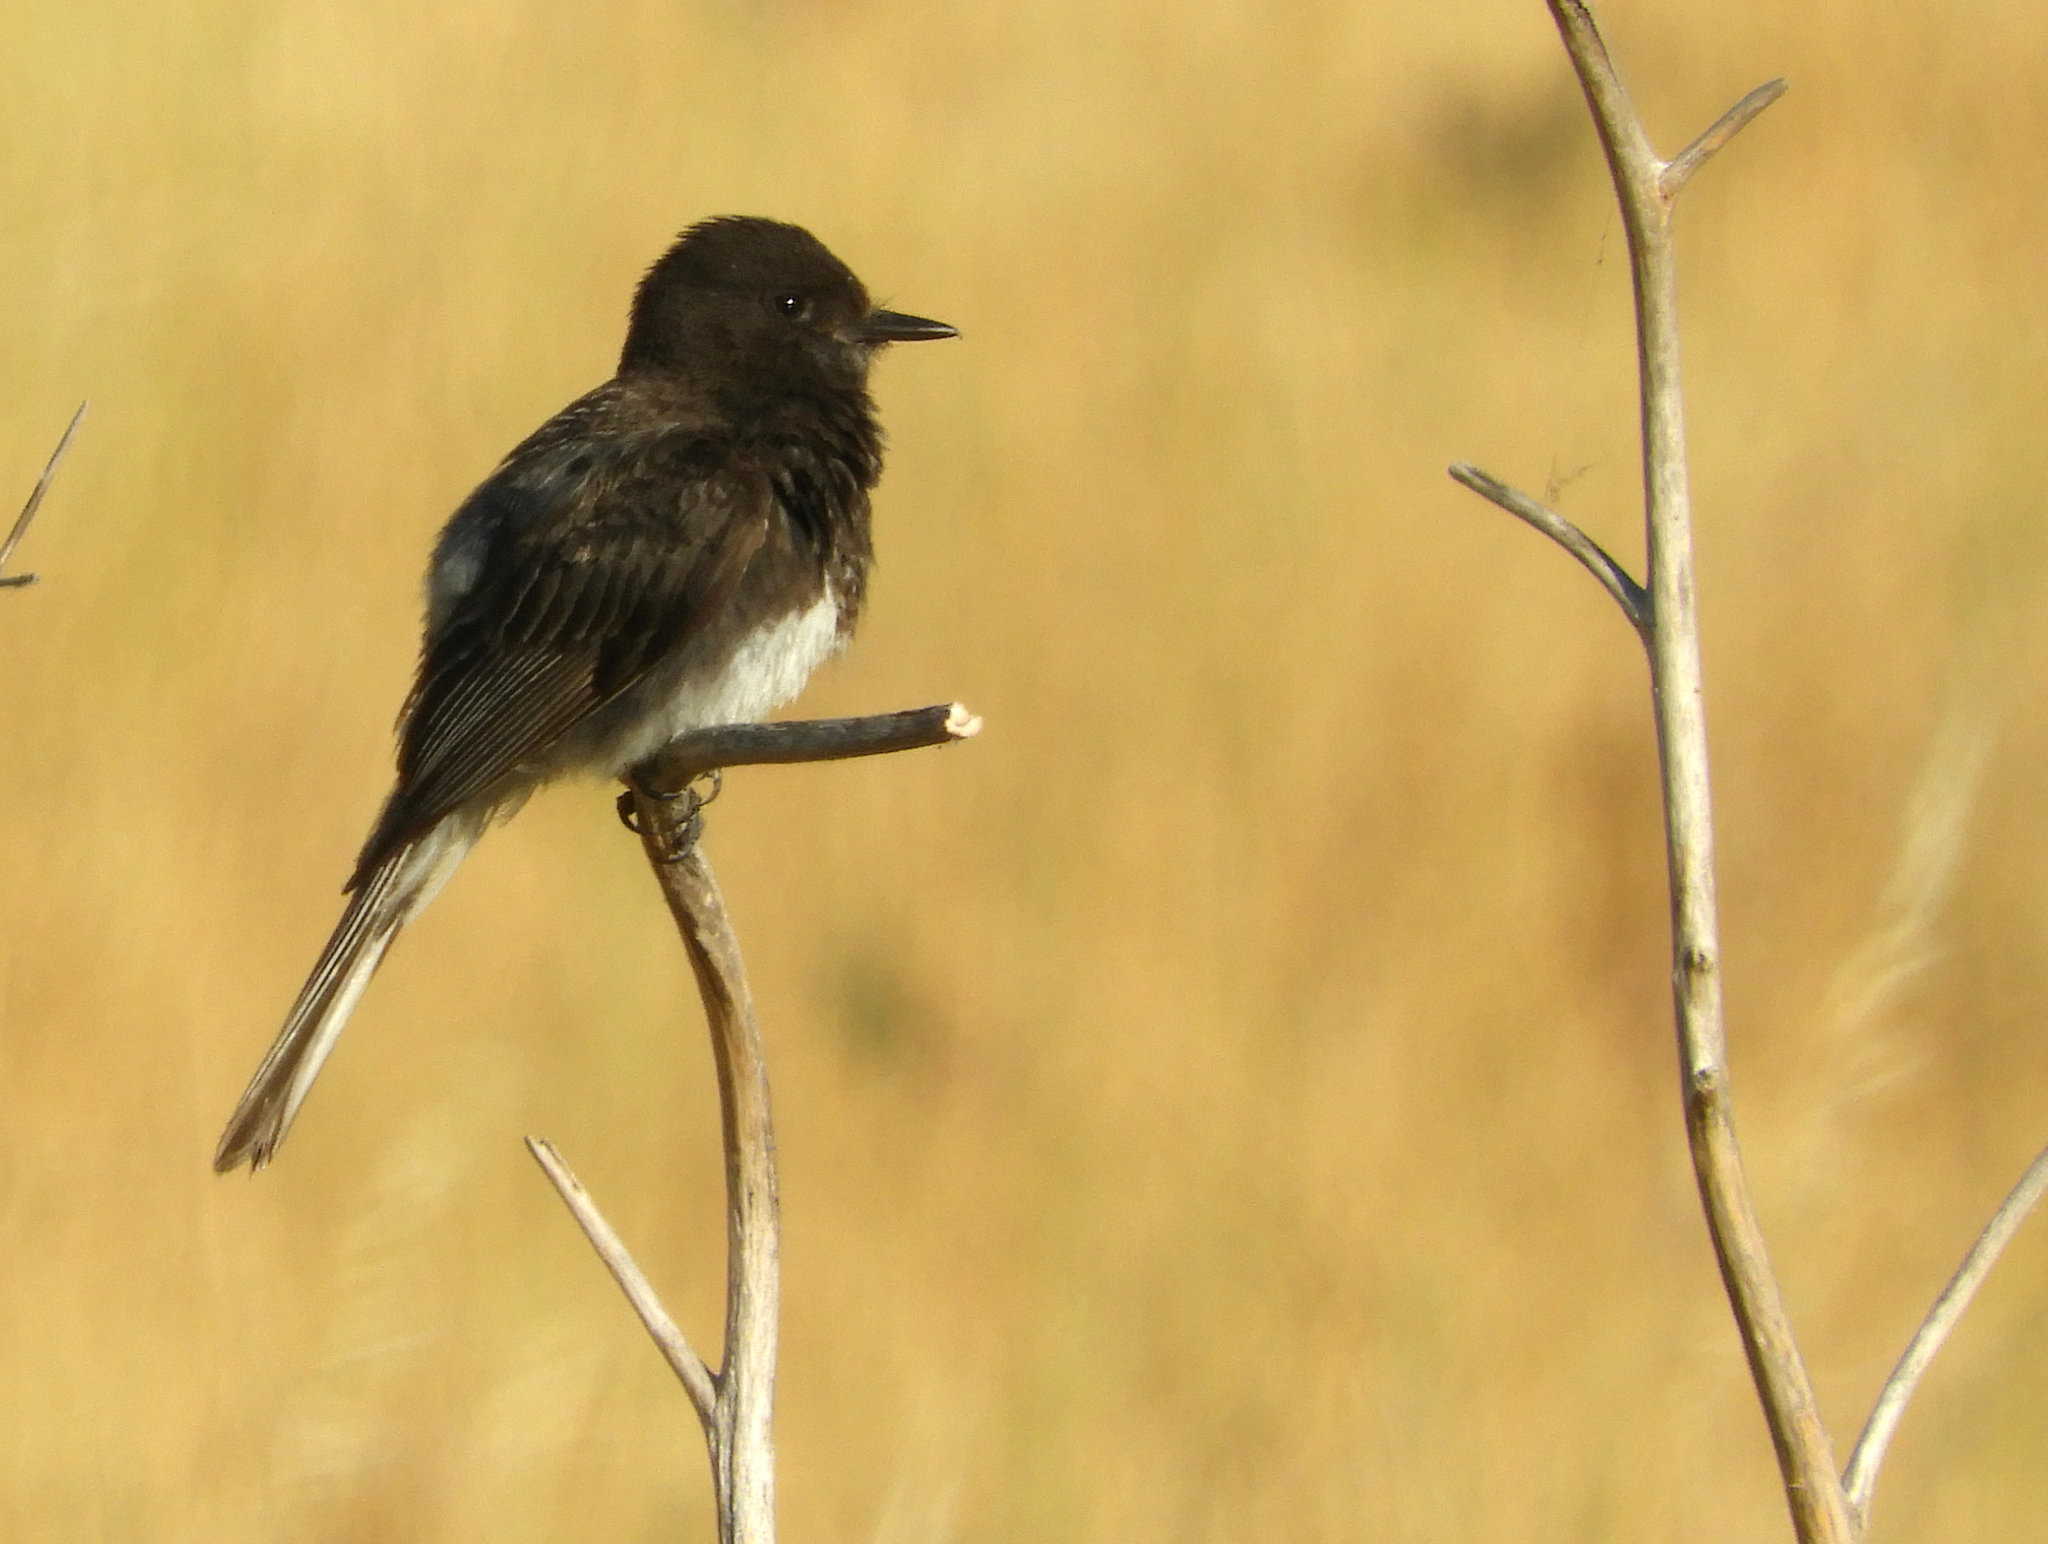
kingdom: Animalia
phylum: Chordata
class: Aves
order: Passeriformes
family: Tyrannidae
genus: Sayornis
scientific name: Sayornis nigricans
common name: Black phoebe
